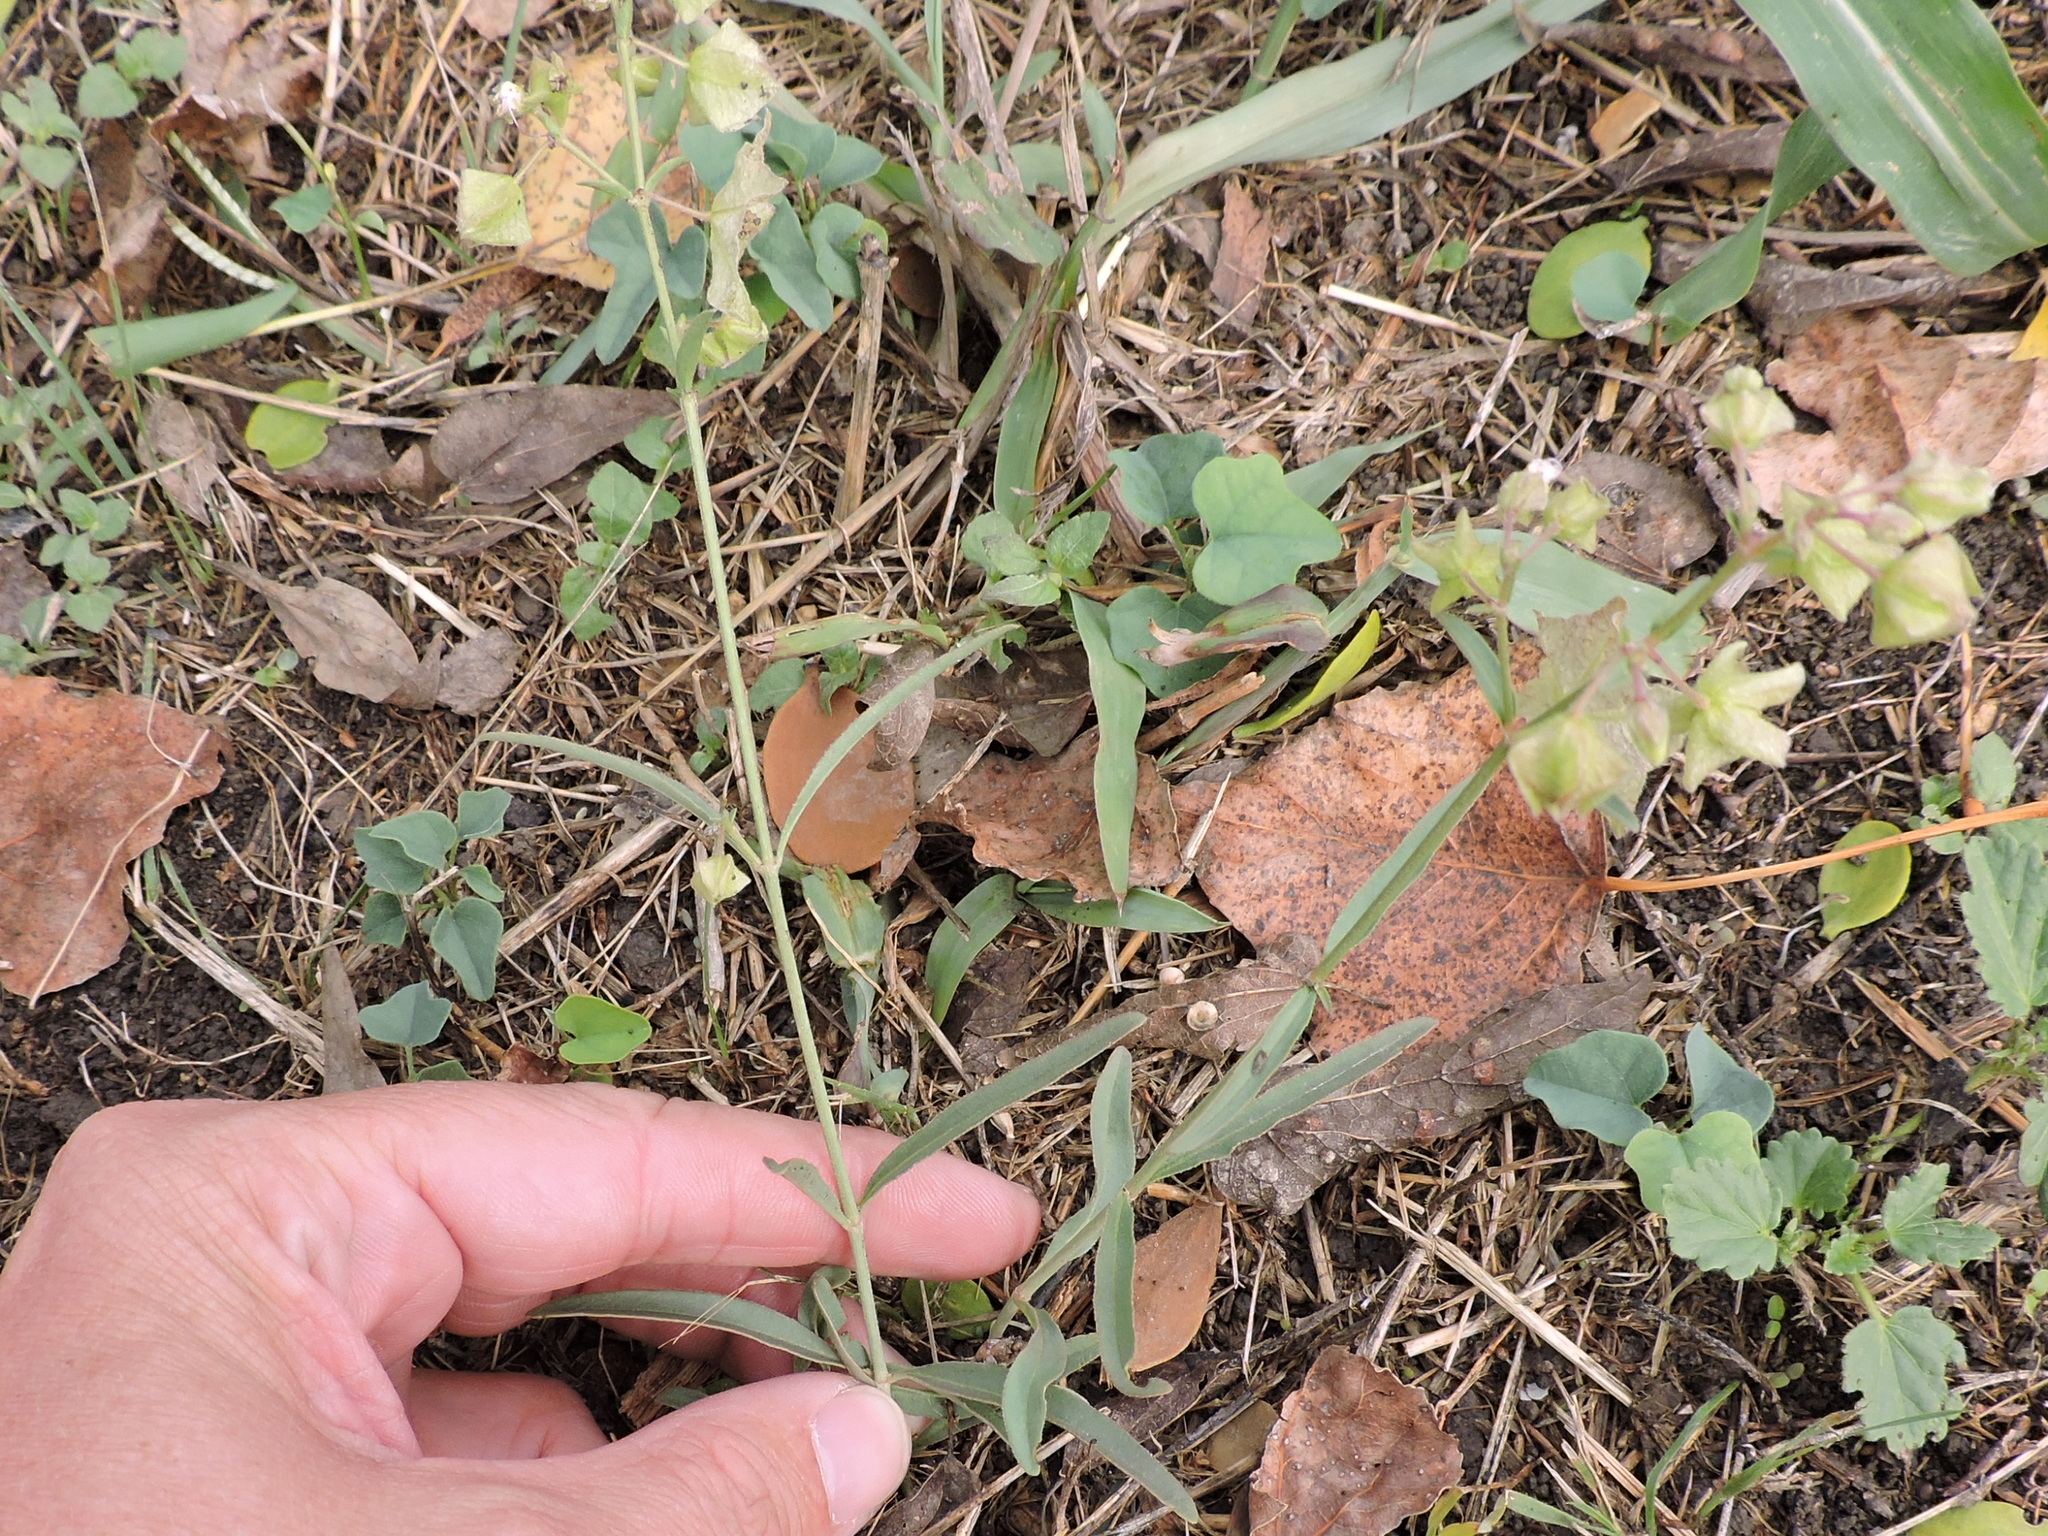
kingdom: Plantae
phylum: Tracheophyta
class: Magnoliopsida
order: Caryophyllales
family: Nyctaginaceae
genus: Mirabilis
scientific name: Mirabilis albida
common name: Hairy four-o'clock
